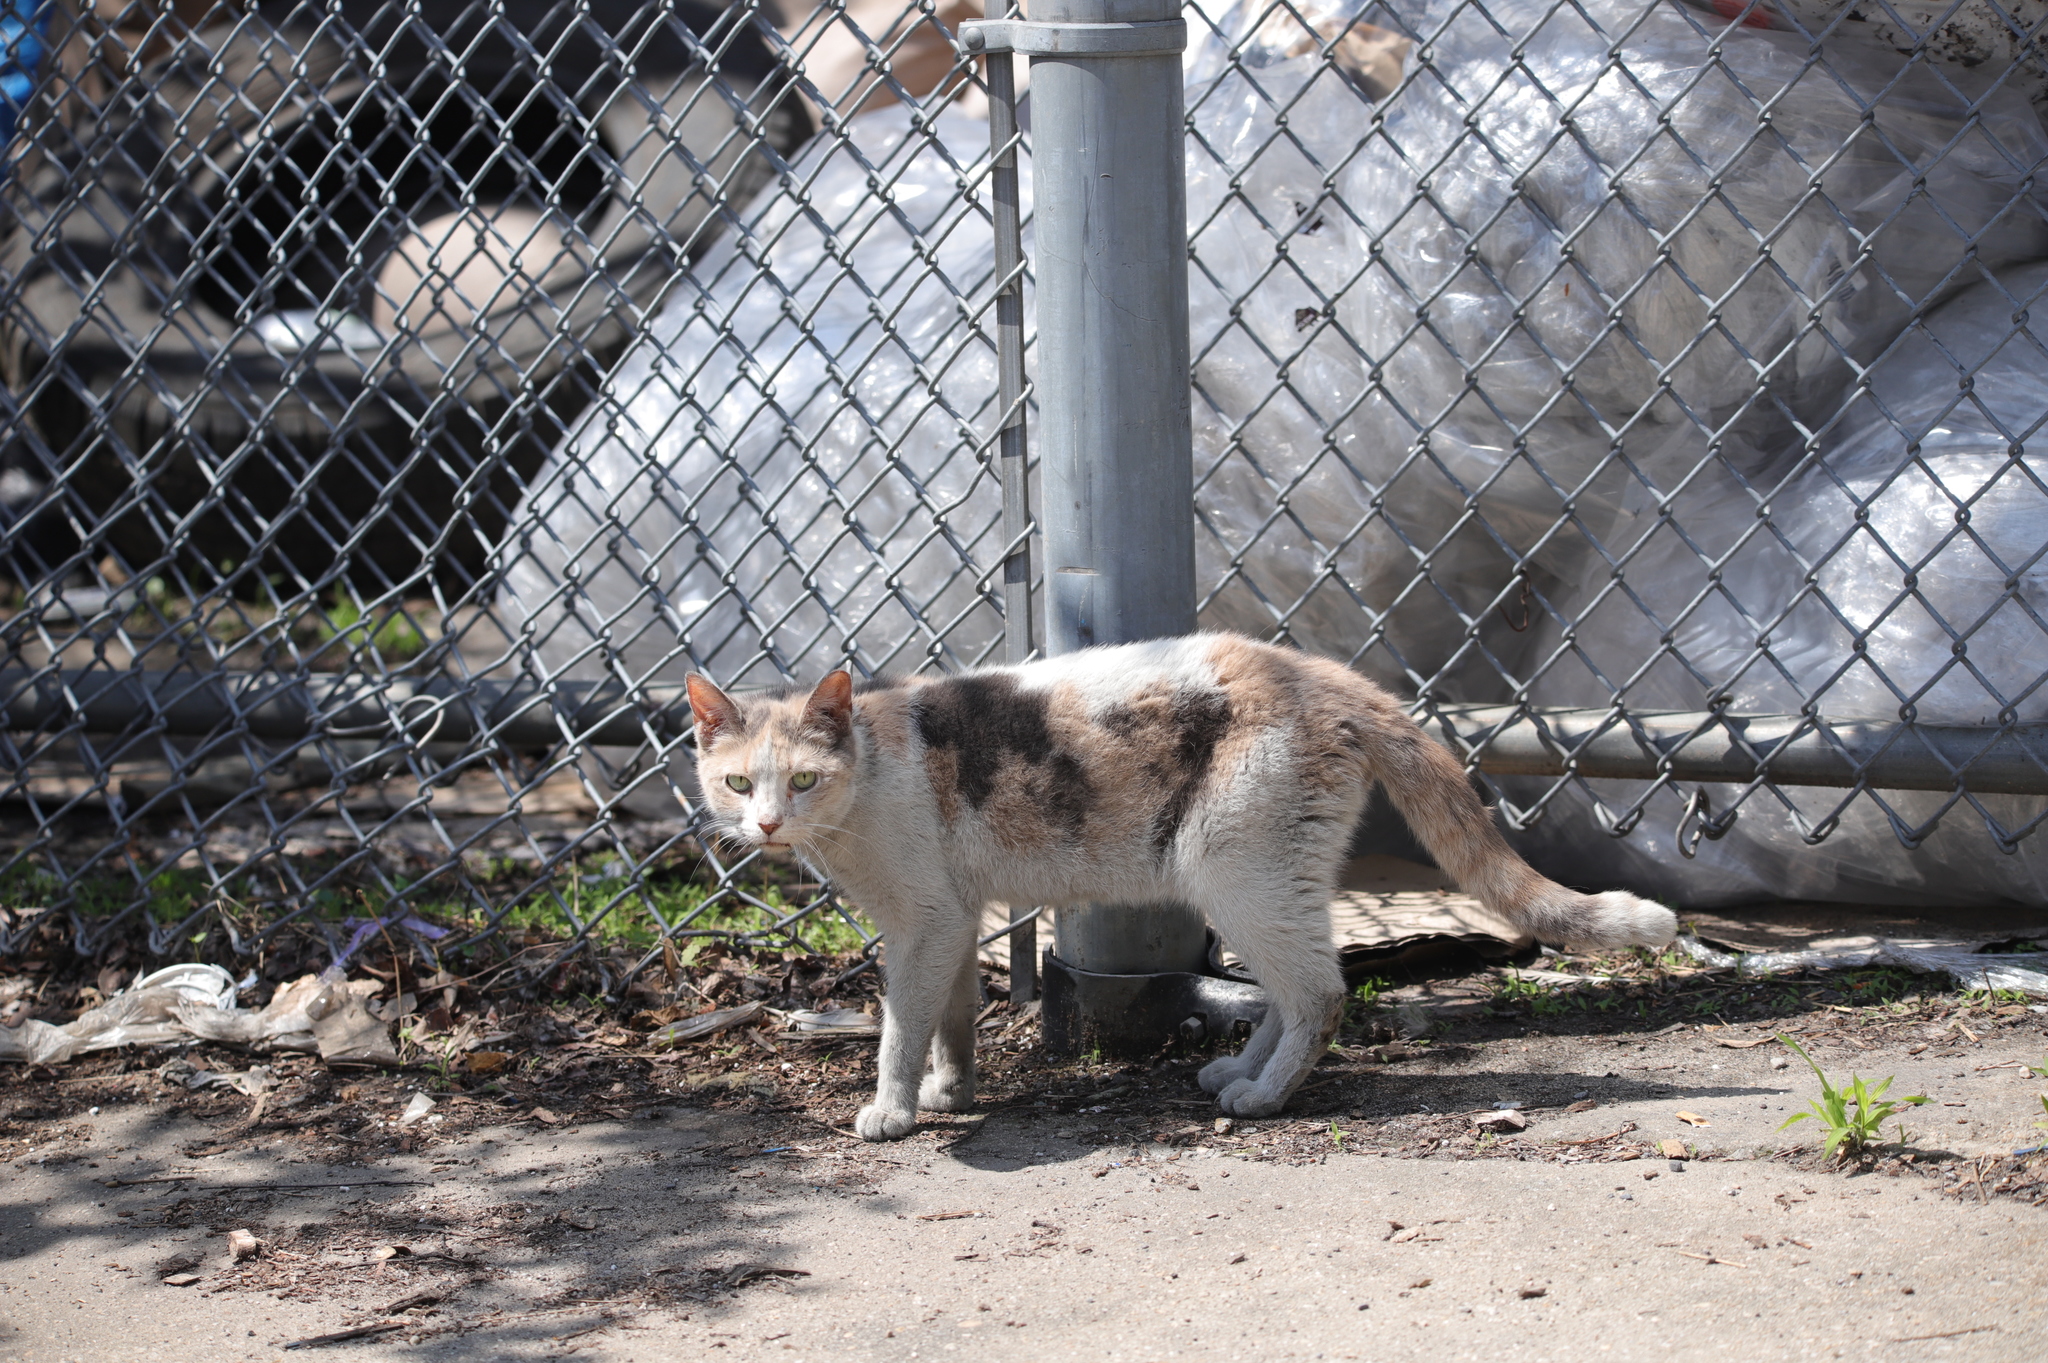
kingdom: Animalia
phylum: Chordata
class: Mammalia
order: Carnivora
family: Felidae
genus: Felis
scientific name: Felis catus
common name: Domestic cat
